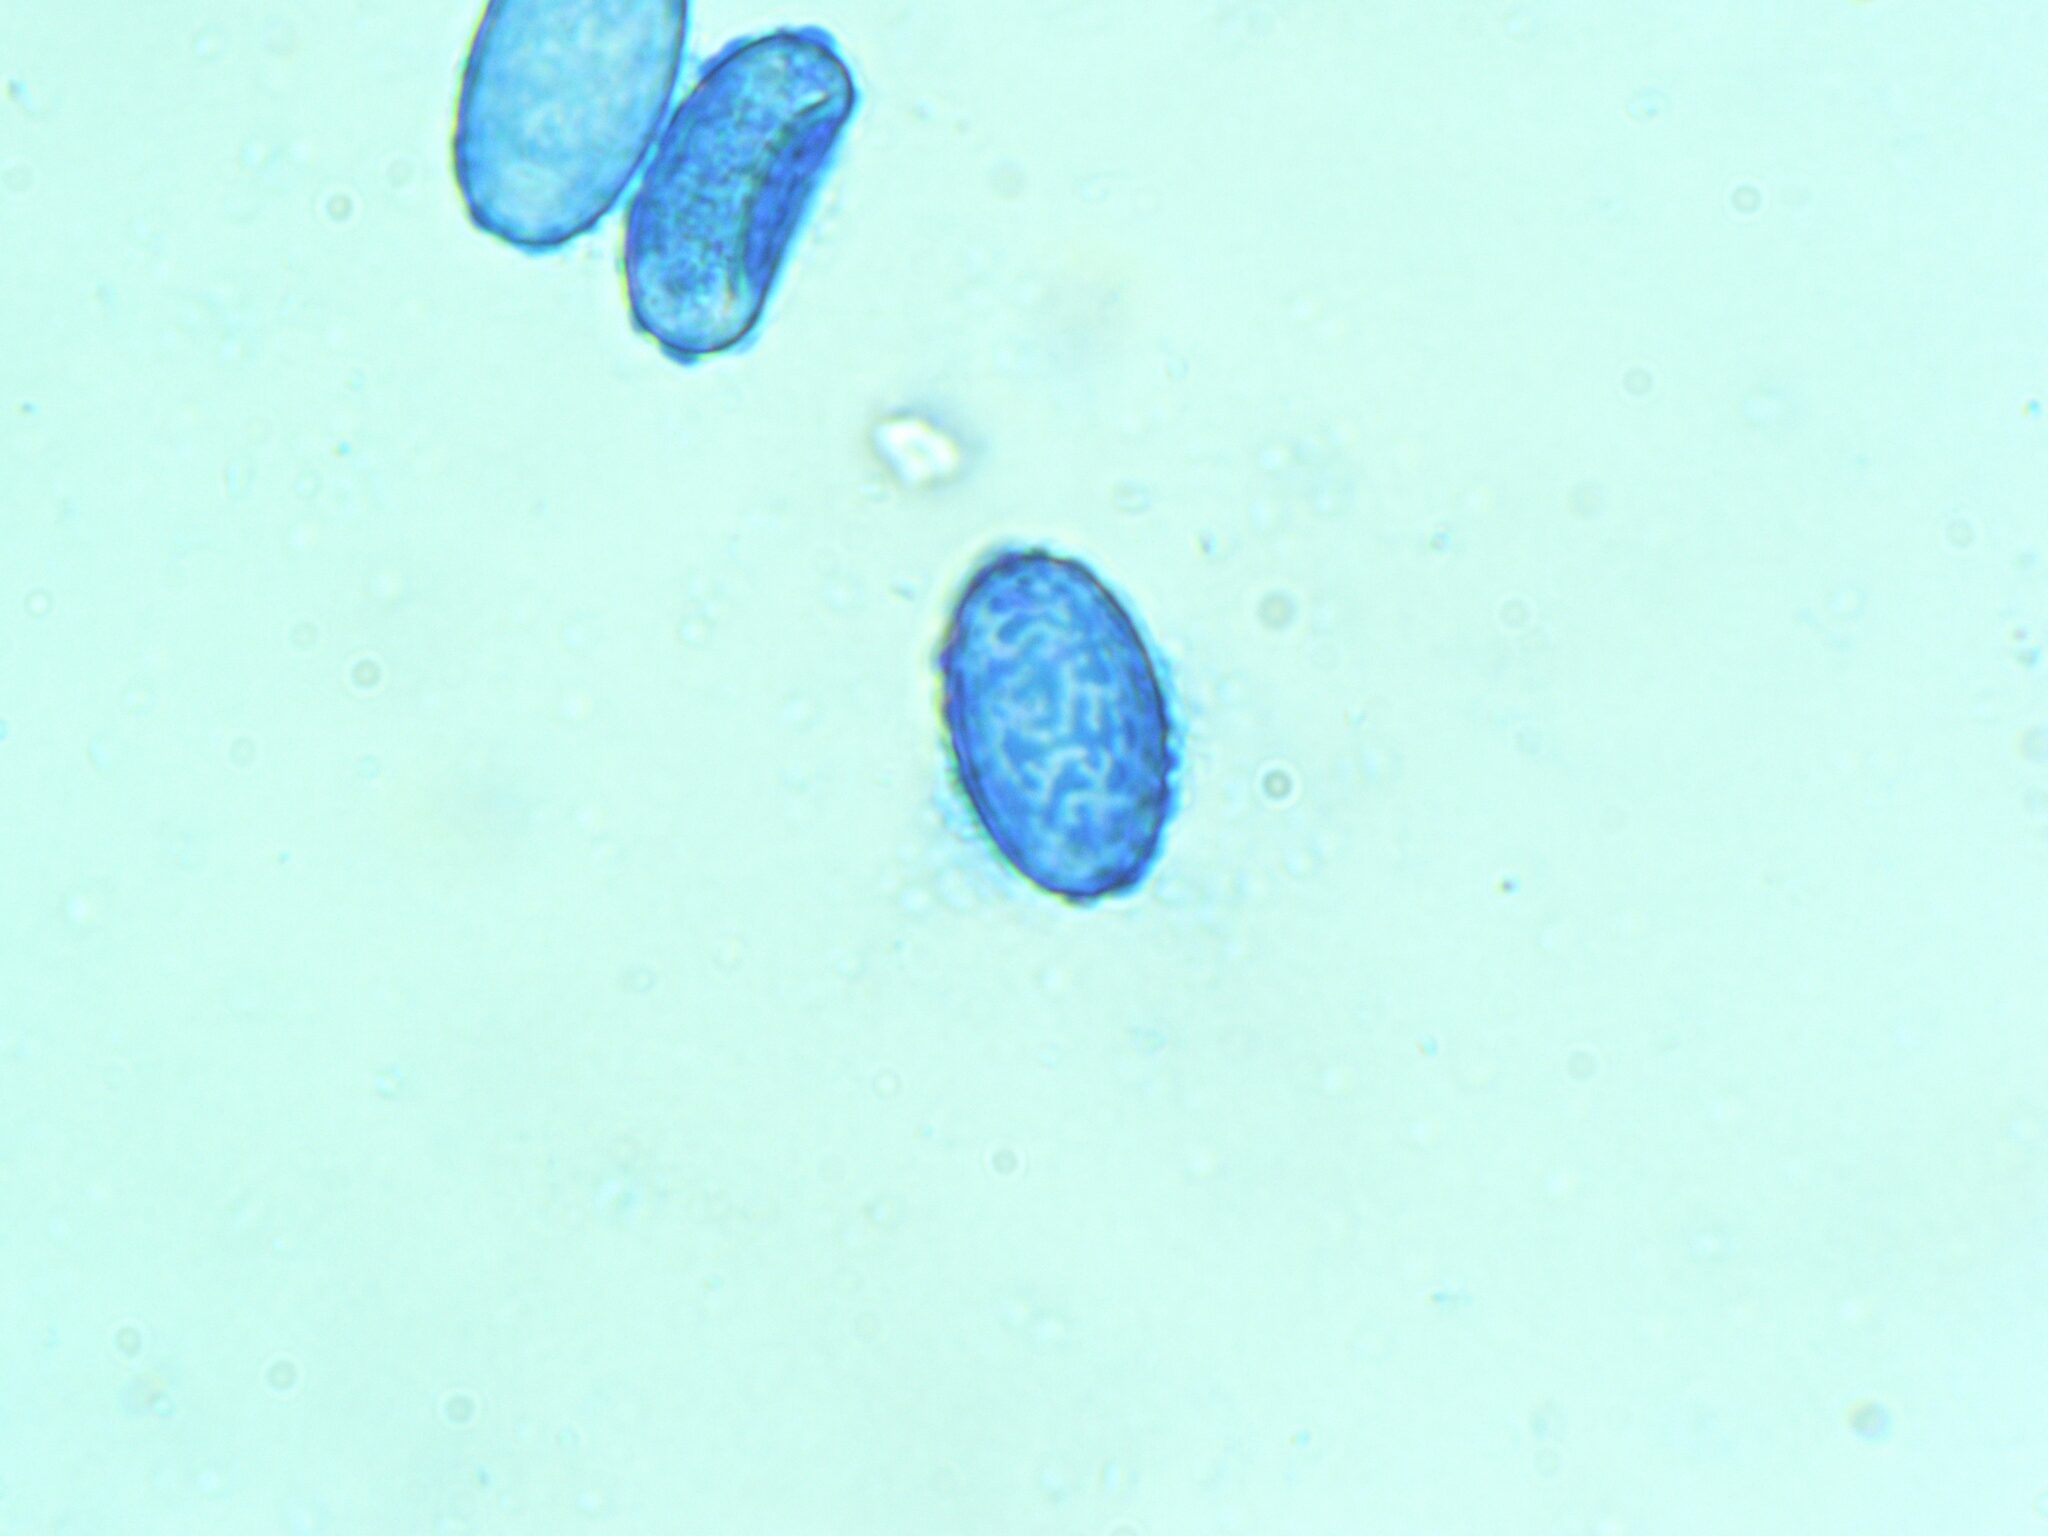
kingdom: Fungi
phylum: Ascomycota
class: Pezizomycetes
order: Pezizales
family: Pyronemataceae
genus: Scutellinia
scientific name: Scutellinia colensoi
